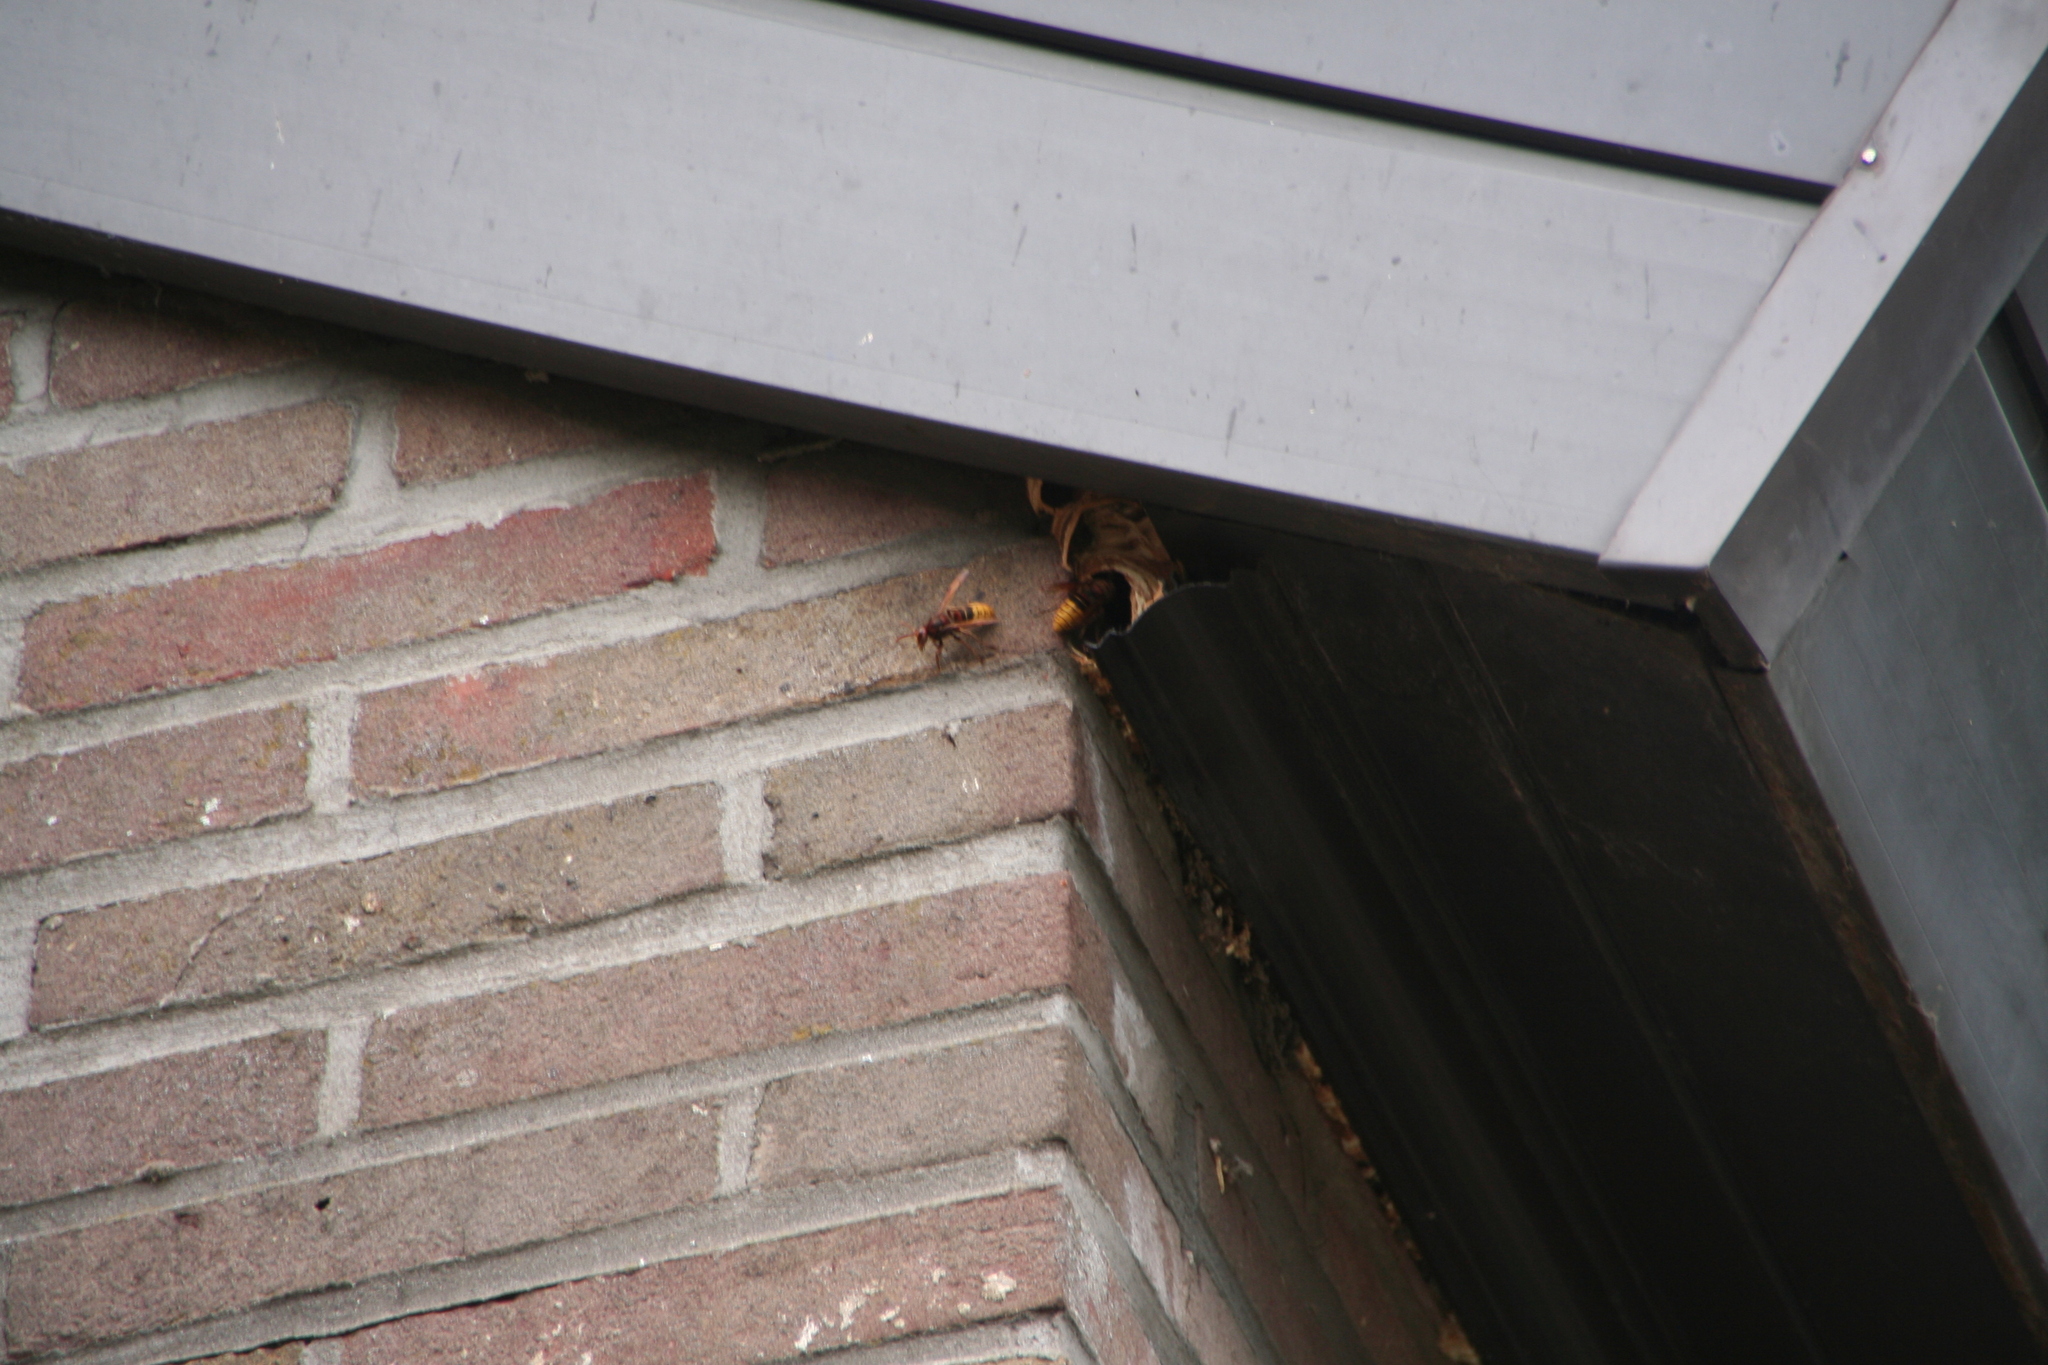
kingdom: Animalia
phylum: Arthropoda
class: Insecta
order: Hymenoptera
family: Vespidae
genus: Vespa
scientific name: Vespa crabro
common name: Hornet
